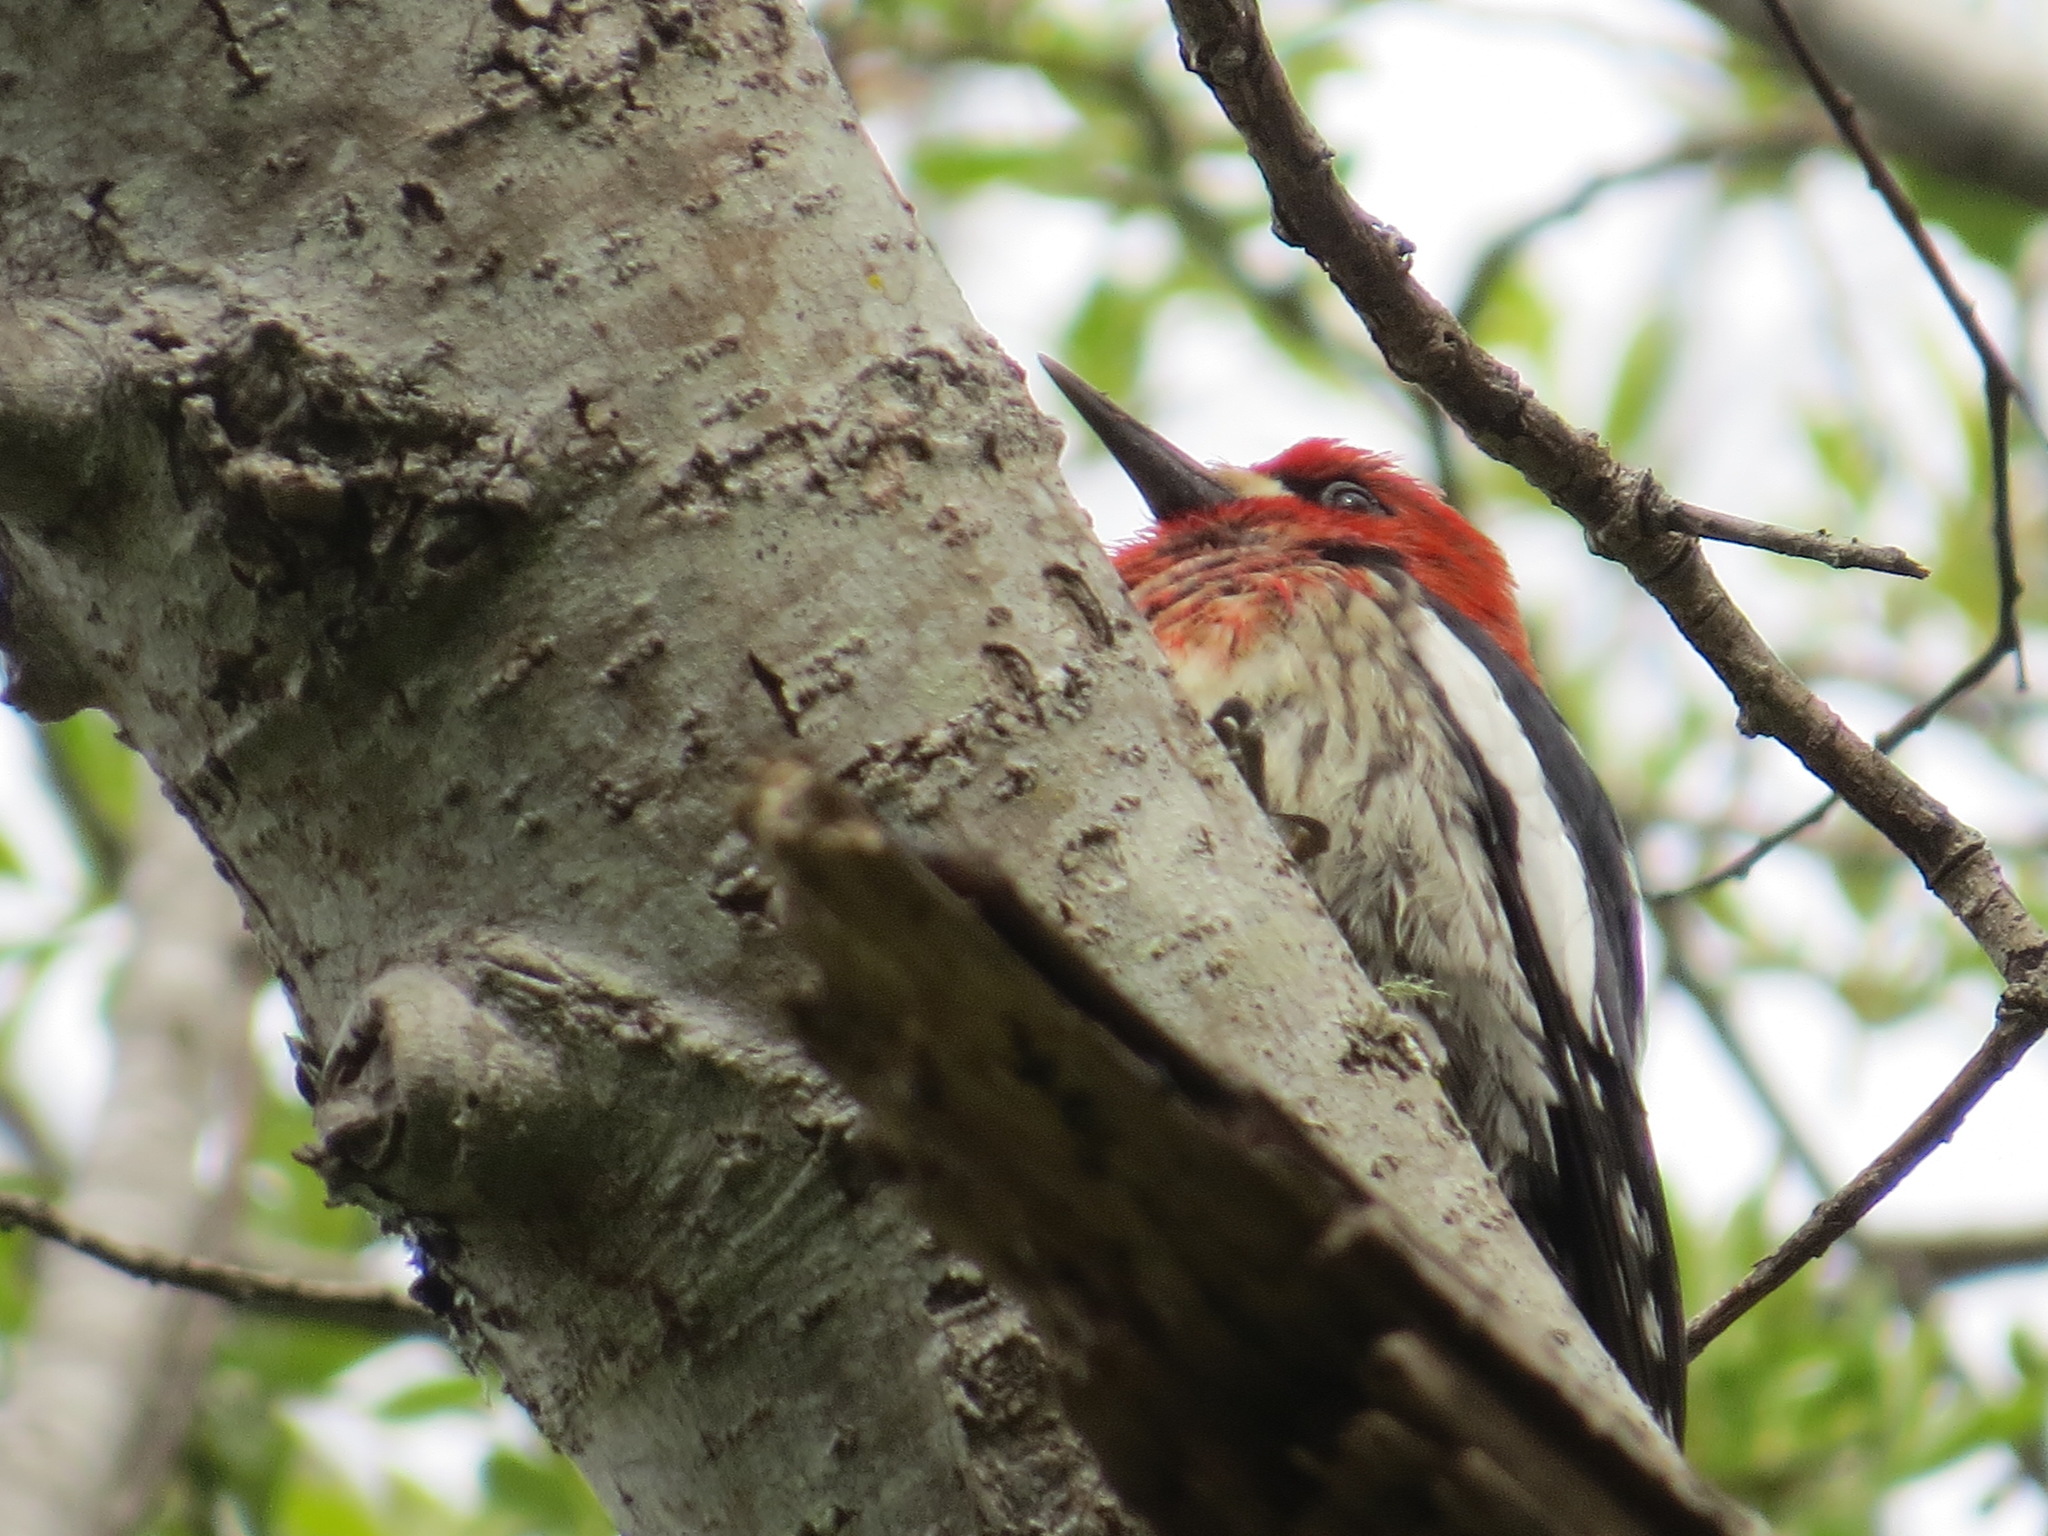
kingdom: Animalia
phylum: Chordata
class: Aves
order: Piciformes
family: Picidae
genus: Sphyrapicus
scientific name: Sphyrapicus ruber
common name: Red-breasted sapsucker
